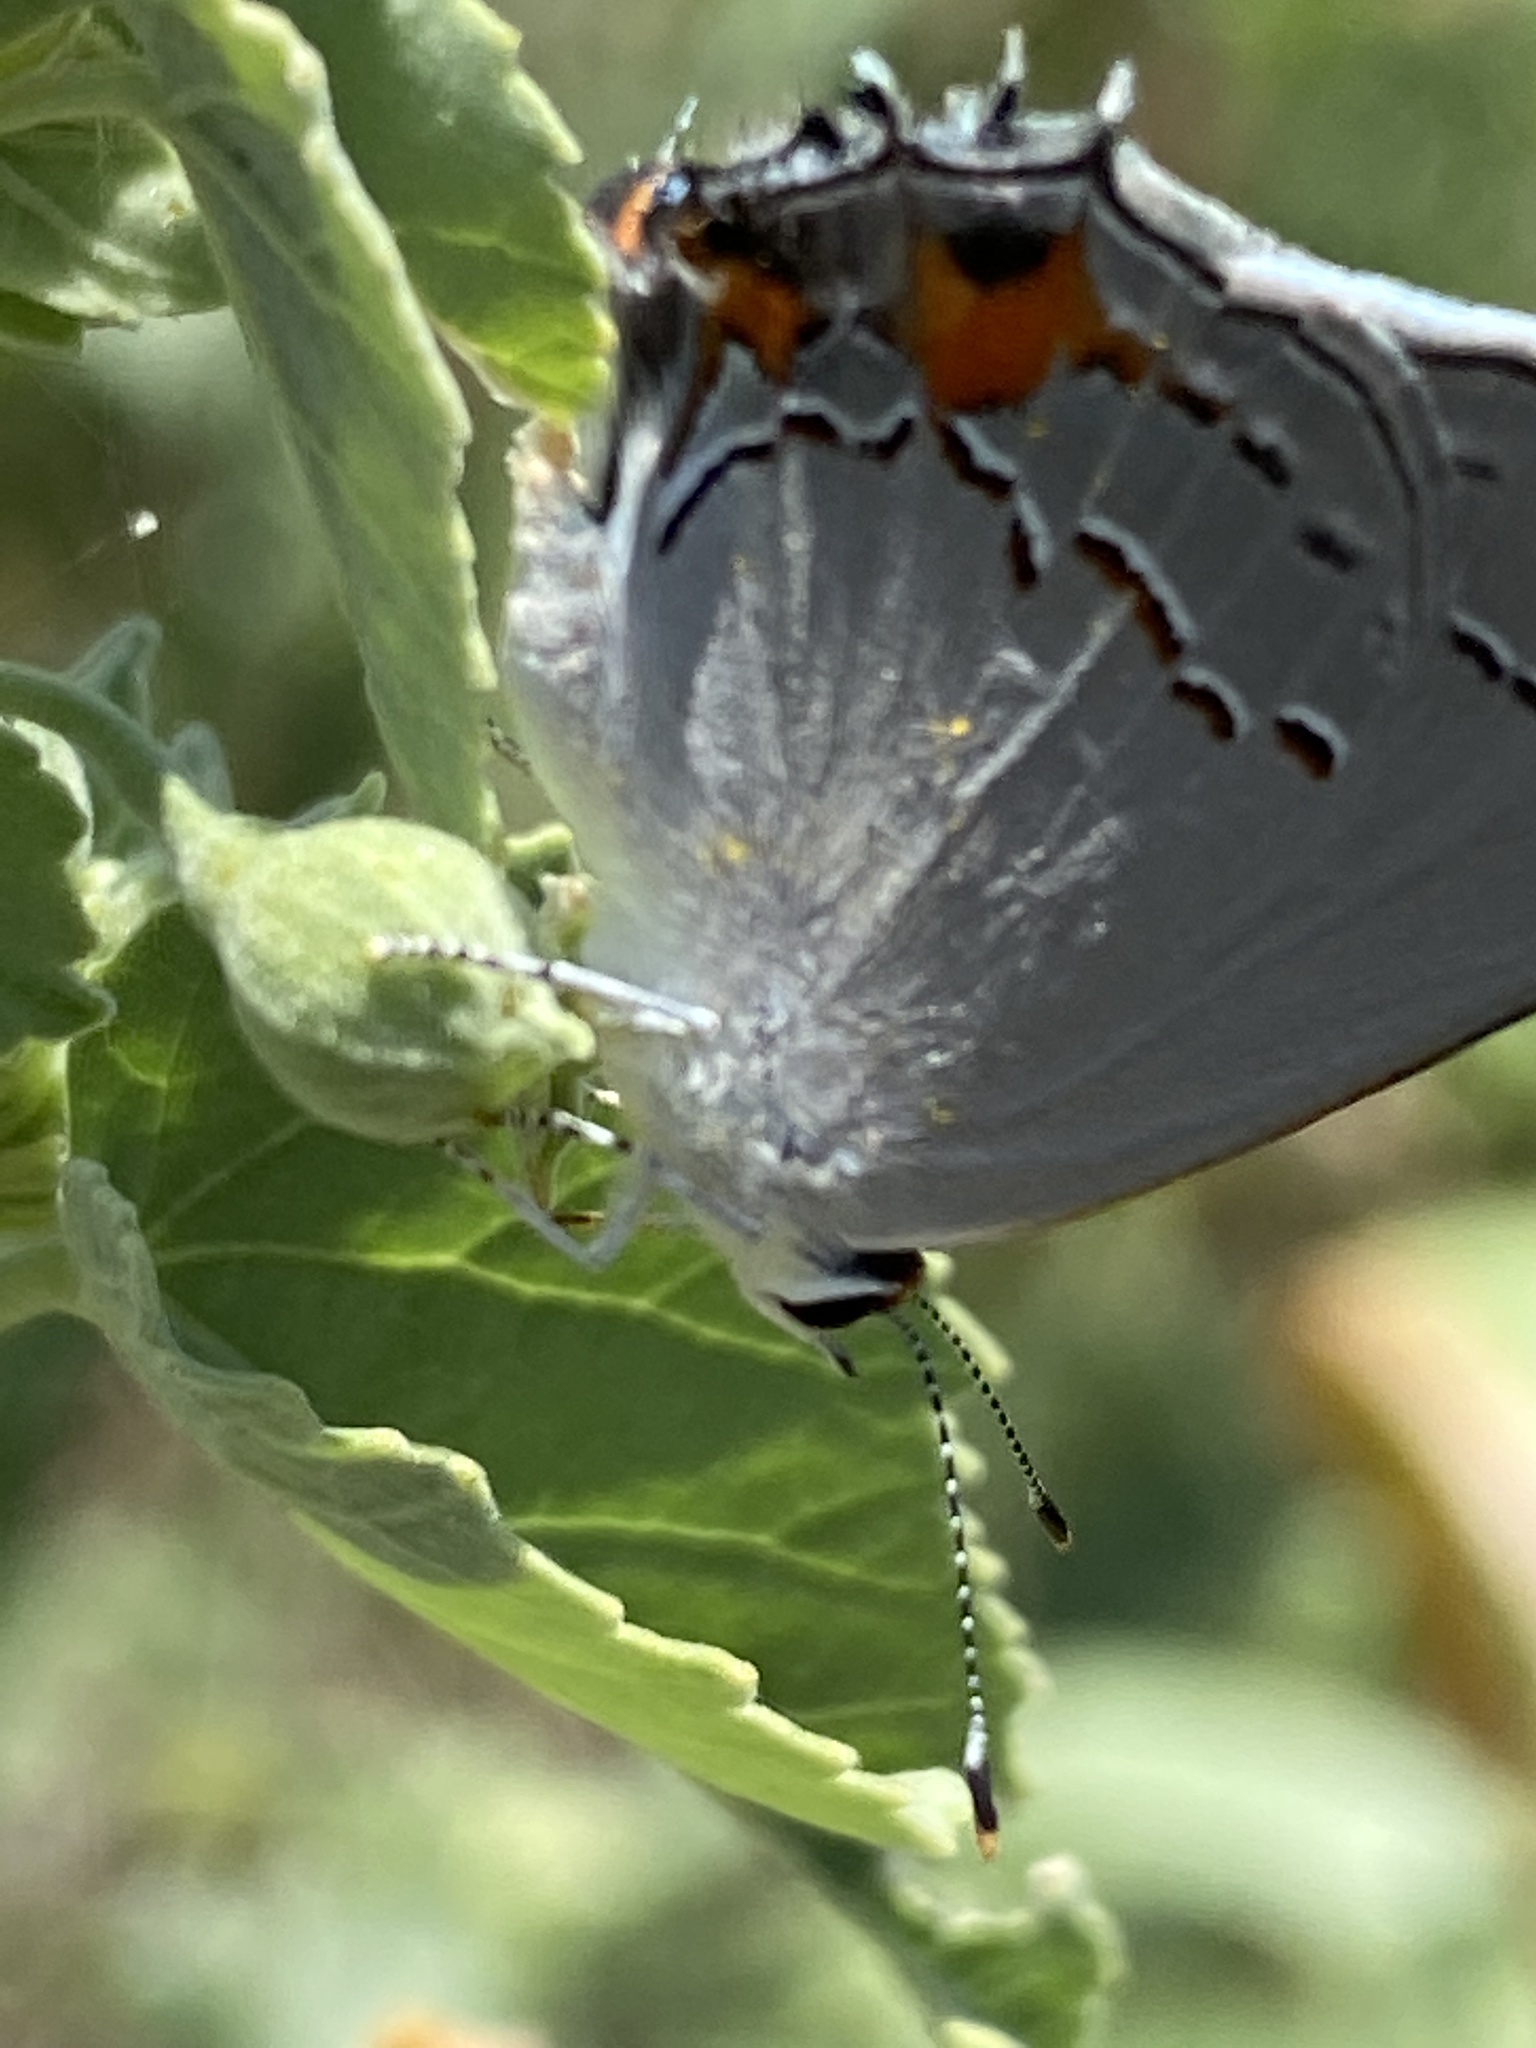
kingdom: Animalia
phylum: Arthropoda
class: Insecta
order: Lepidoptera
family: Lycaenidae
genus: Strymon
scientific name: Strymon melinus
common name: Gray hairstreak
